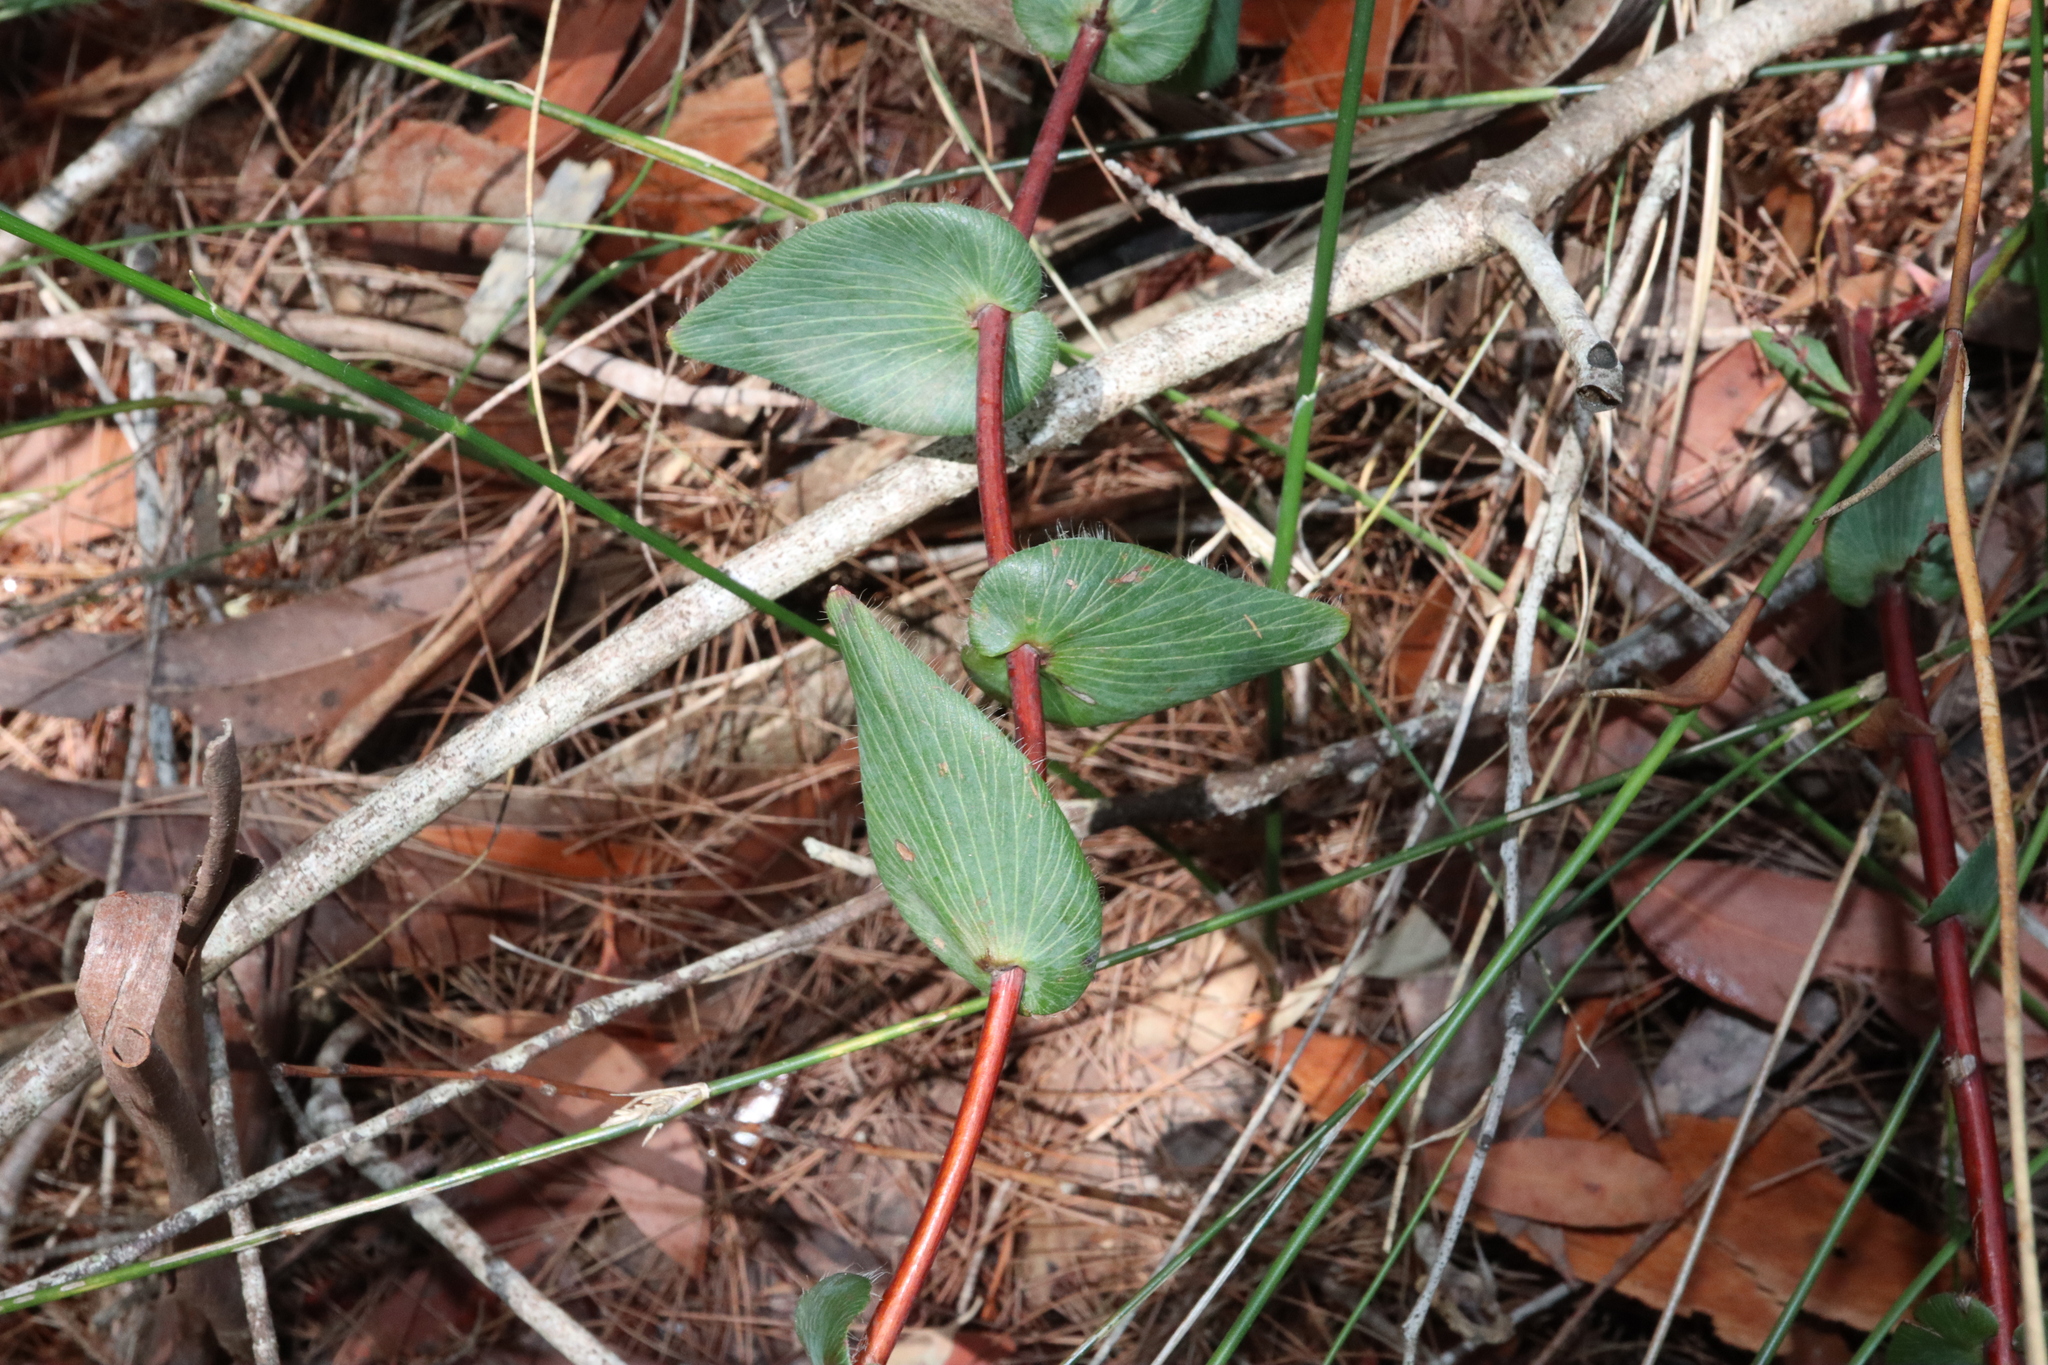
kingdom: Plantae
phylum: Tracheophyta
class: Magnoliopsida
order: Ericales
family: Ericaceae
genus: Leucopogon
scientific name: Leucopogon amplexicaulis
